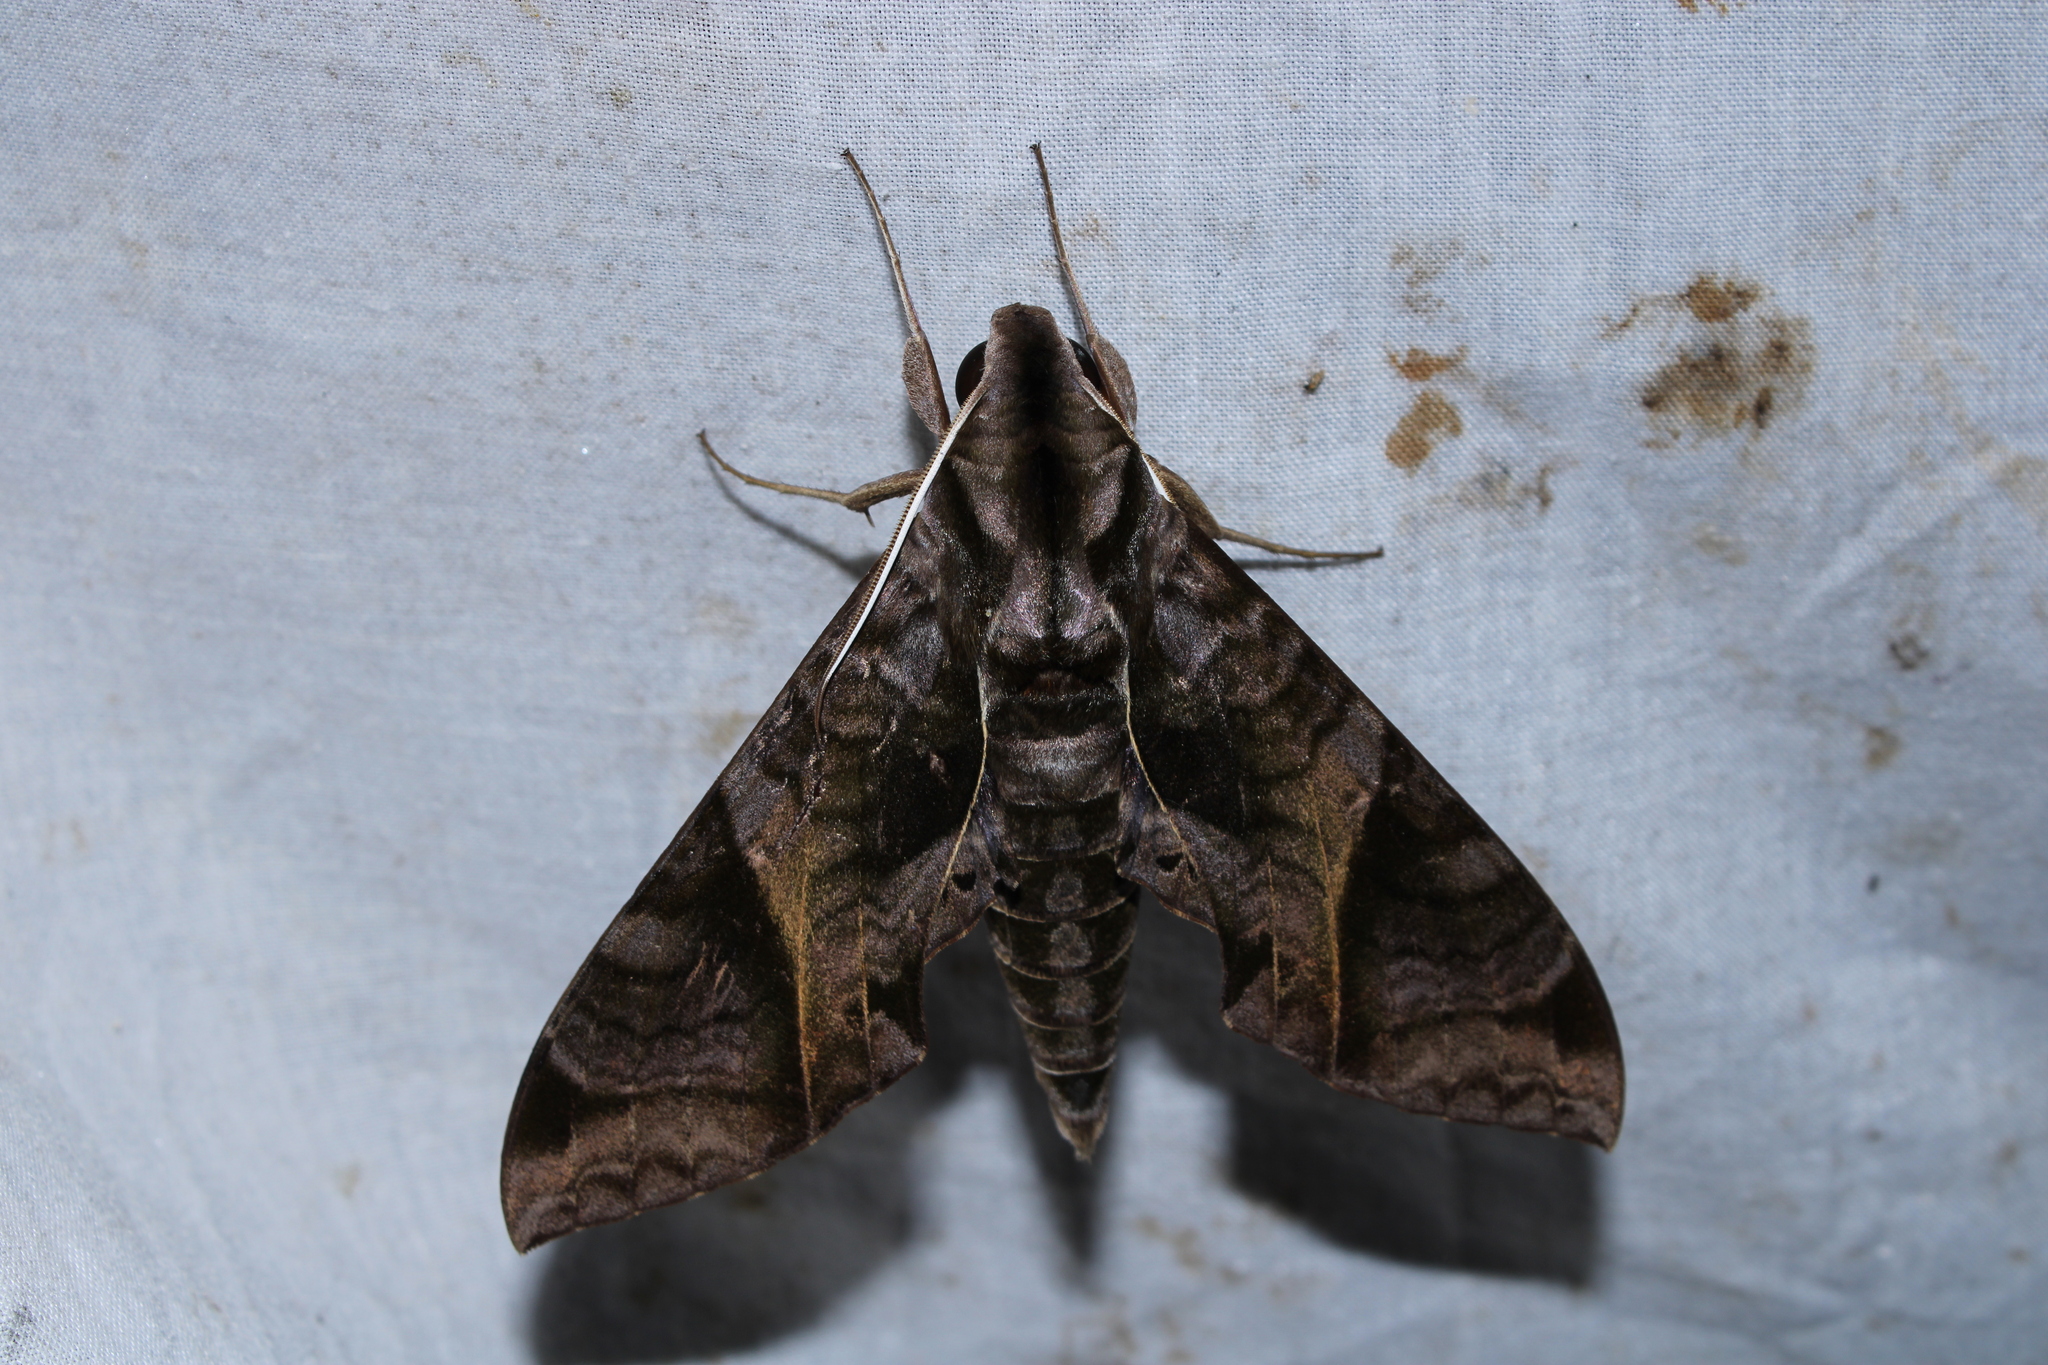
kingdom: Animalia
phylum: Arthropoda
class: Insecta
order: Lepidoptera
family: Sphingidae
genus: Eumorpha
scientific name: Eumorpha anchemolus
